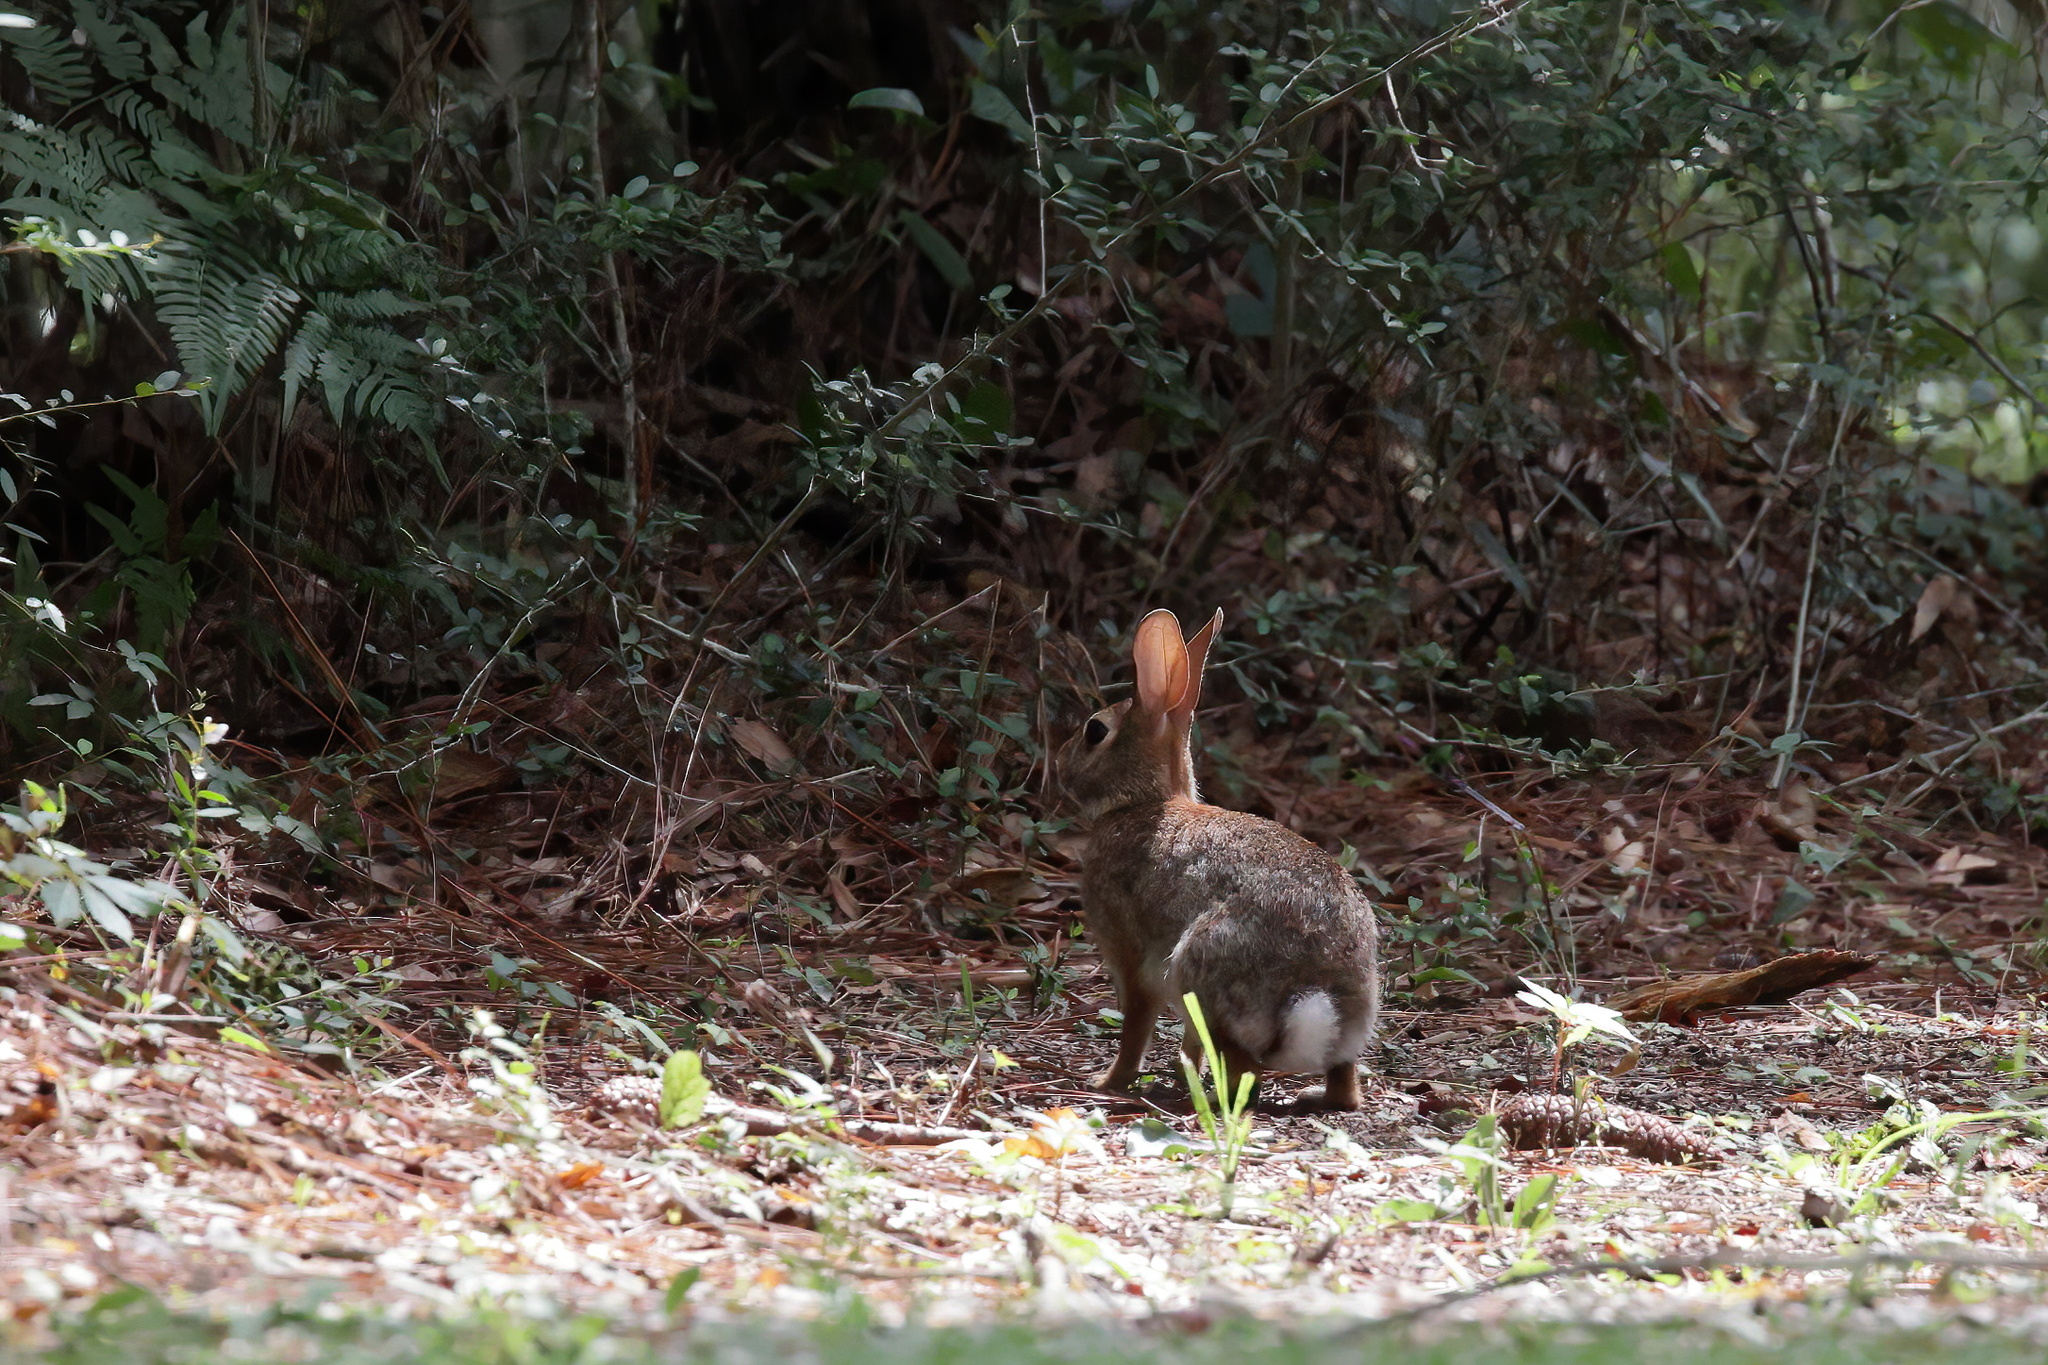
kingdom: Animalia
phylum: Chordata
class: Mammalia
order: Lagomorpha
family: Leporidae
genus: Sylvilagus
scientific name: Sylvilagus floridanus
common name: Eastern cottontail
